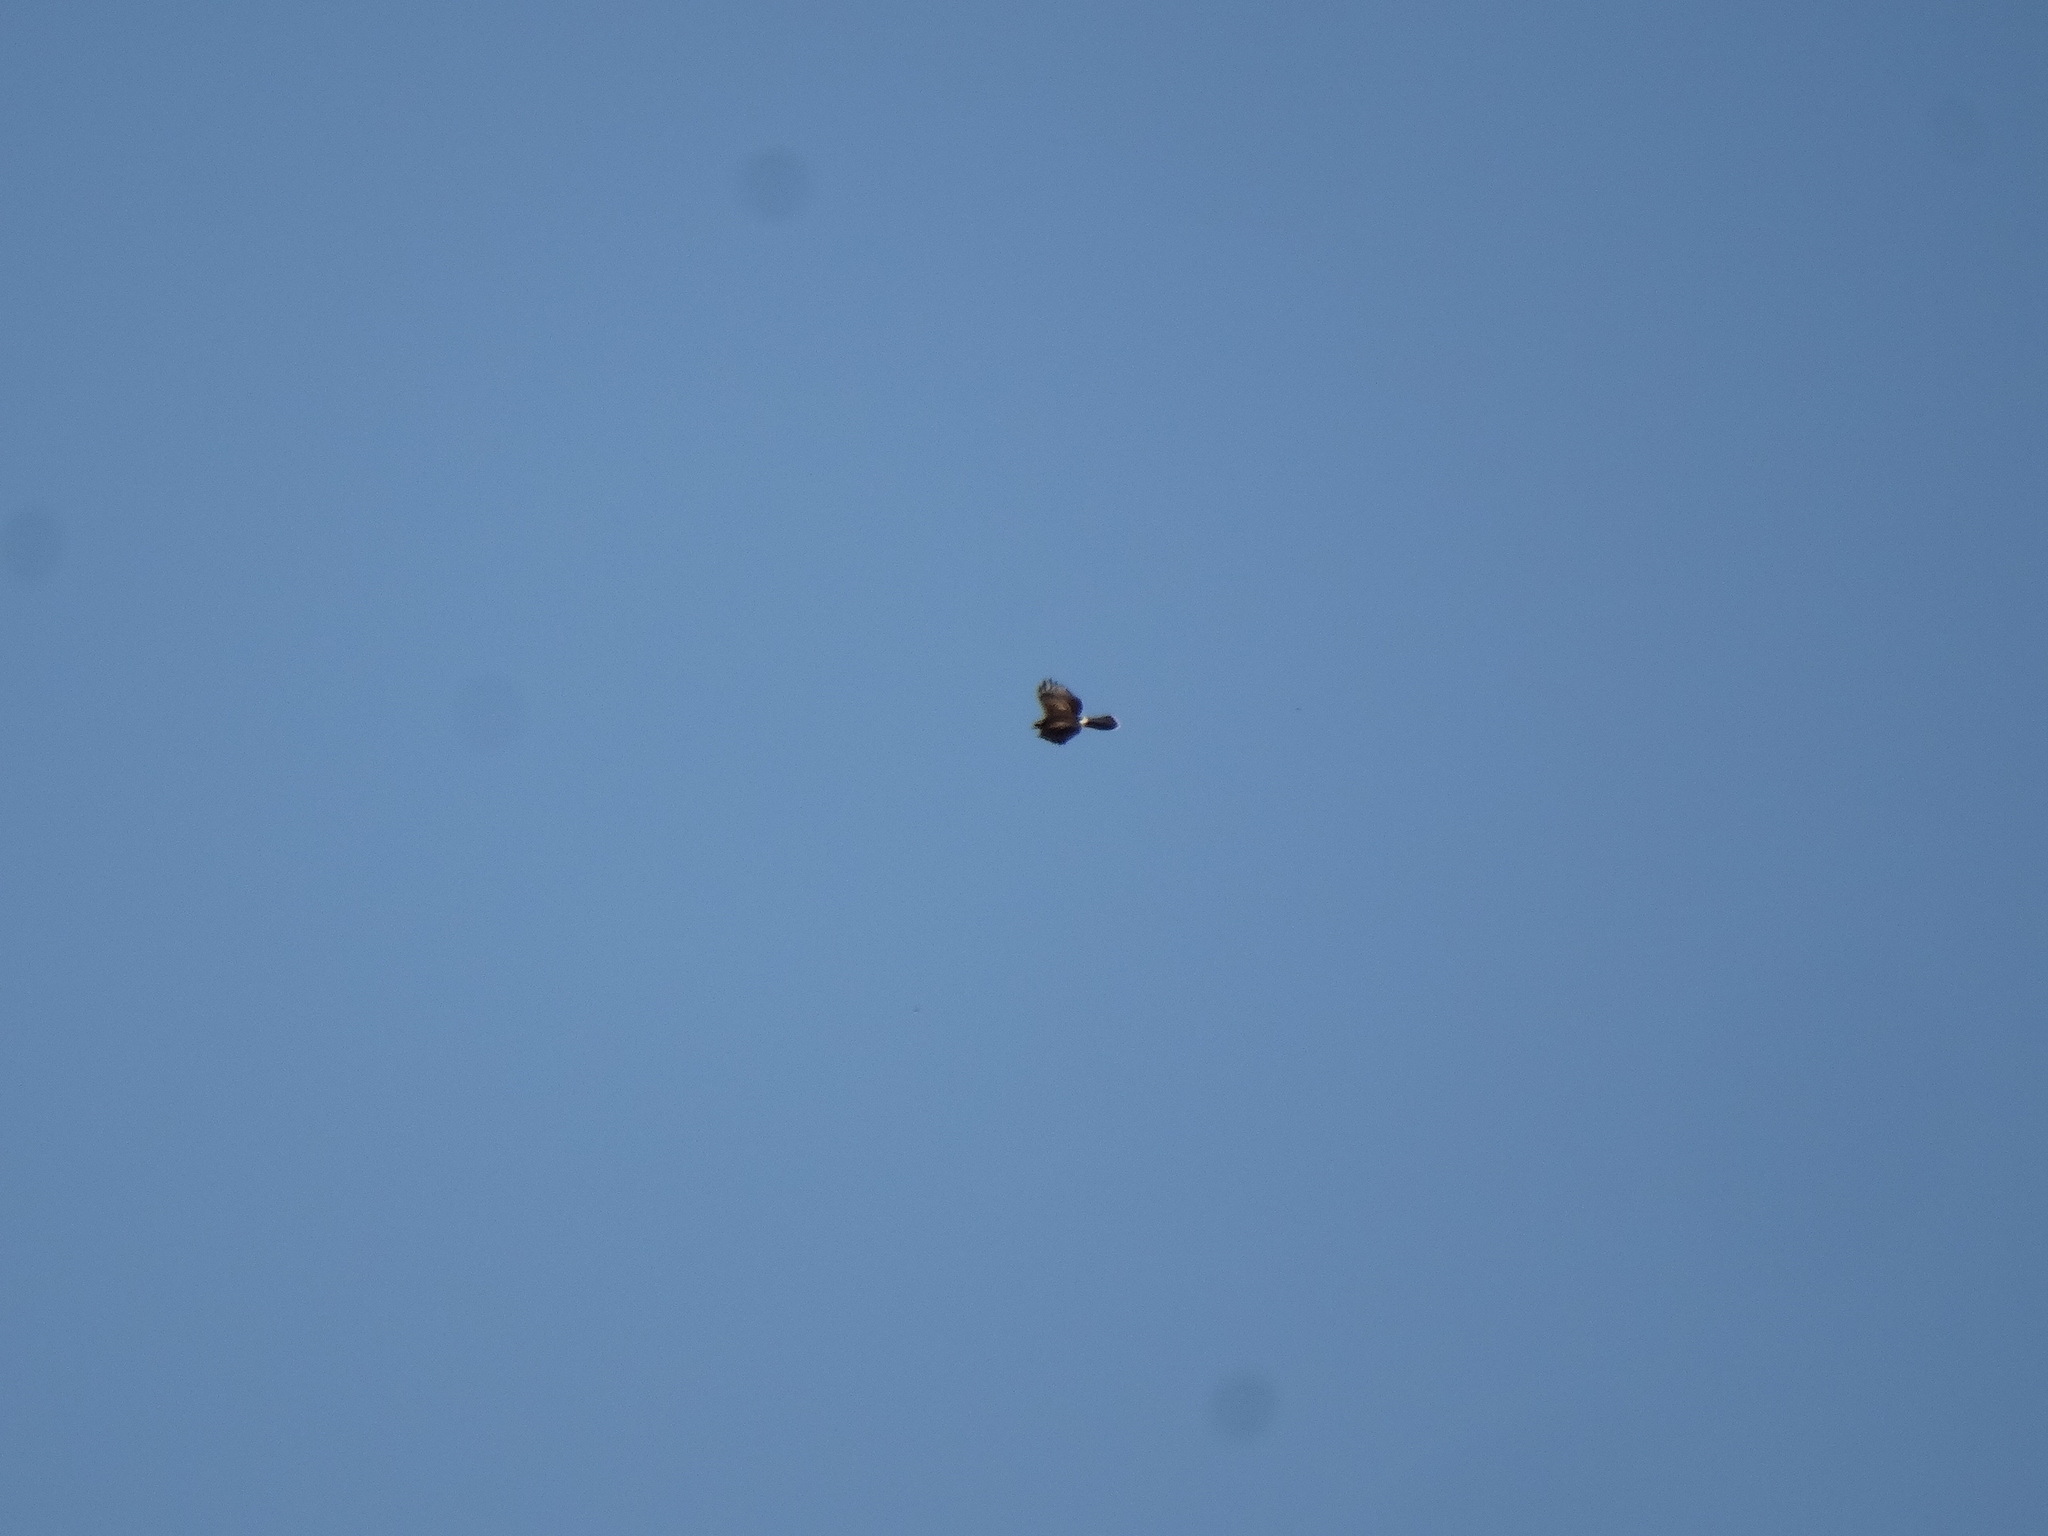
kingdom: Animalia
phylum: Chordata
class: Aves
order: Accipitriformes
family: Accipitridae
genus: Parabuteo
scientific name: Parabuteo unicinctus
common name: Harris's hawk
